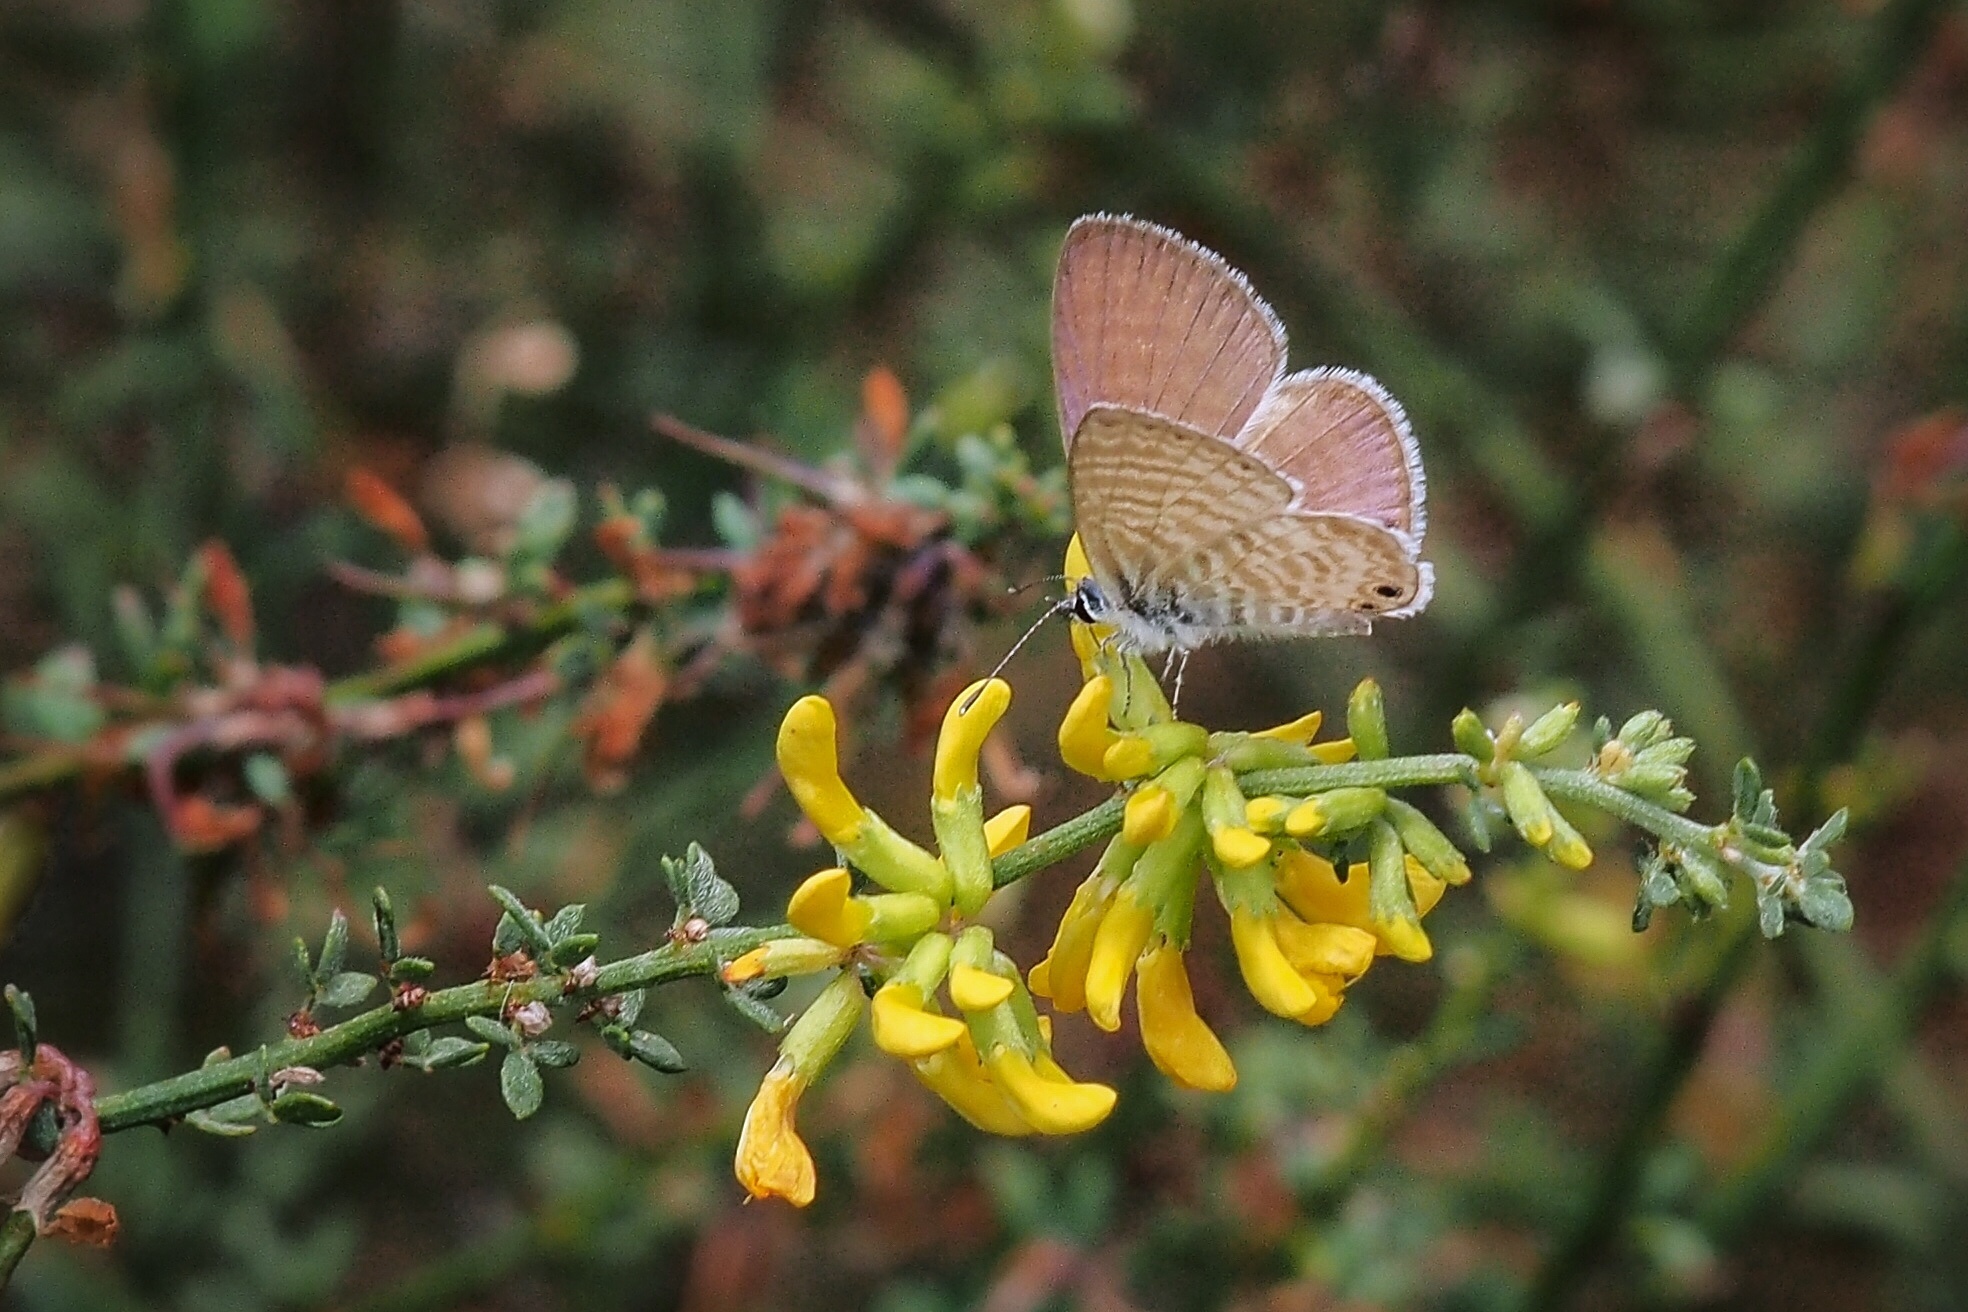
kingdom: Animalia
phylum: Arthropoda
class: Insecta
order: Lepidoptera
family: Lycaenidae
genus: Leptotes
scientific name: Leptotes marina
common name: Marine blue
